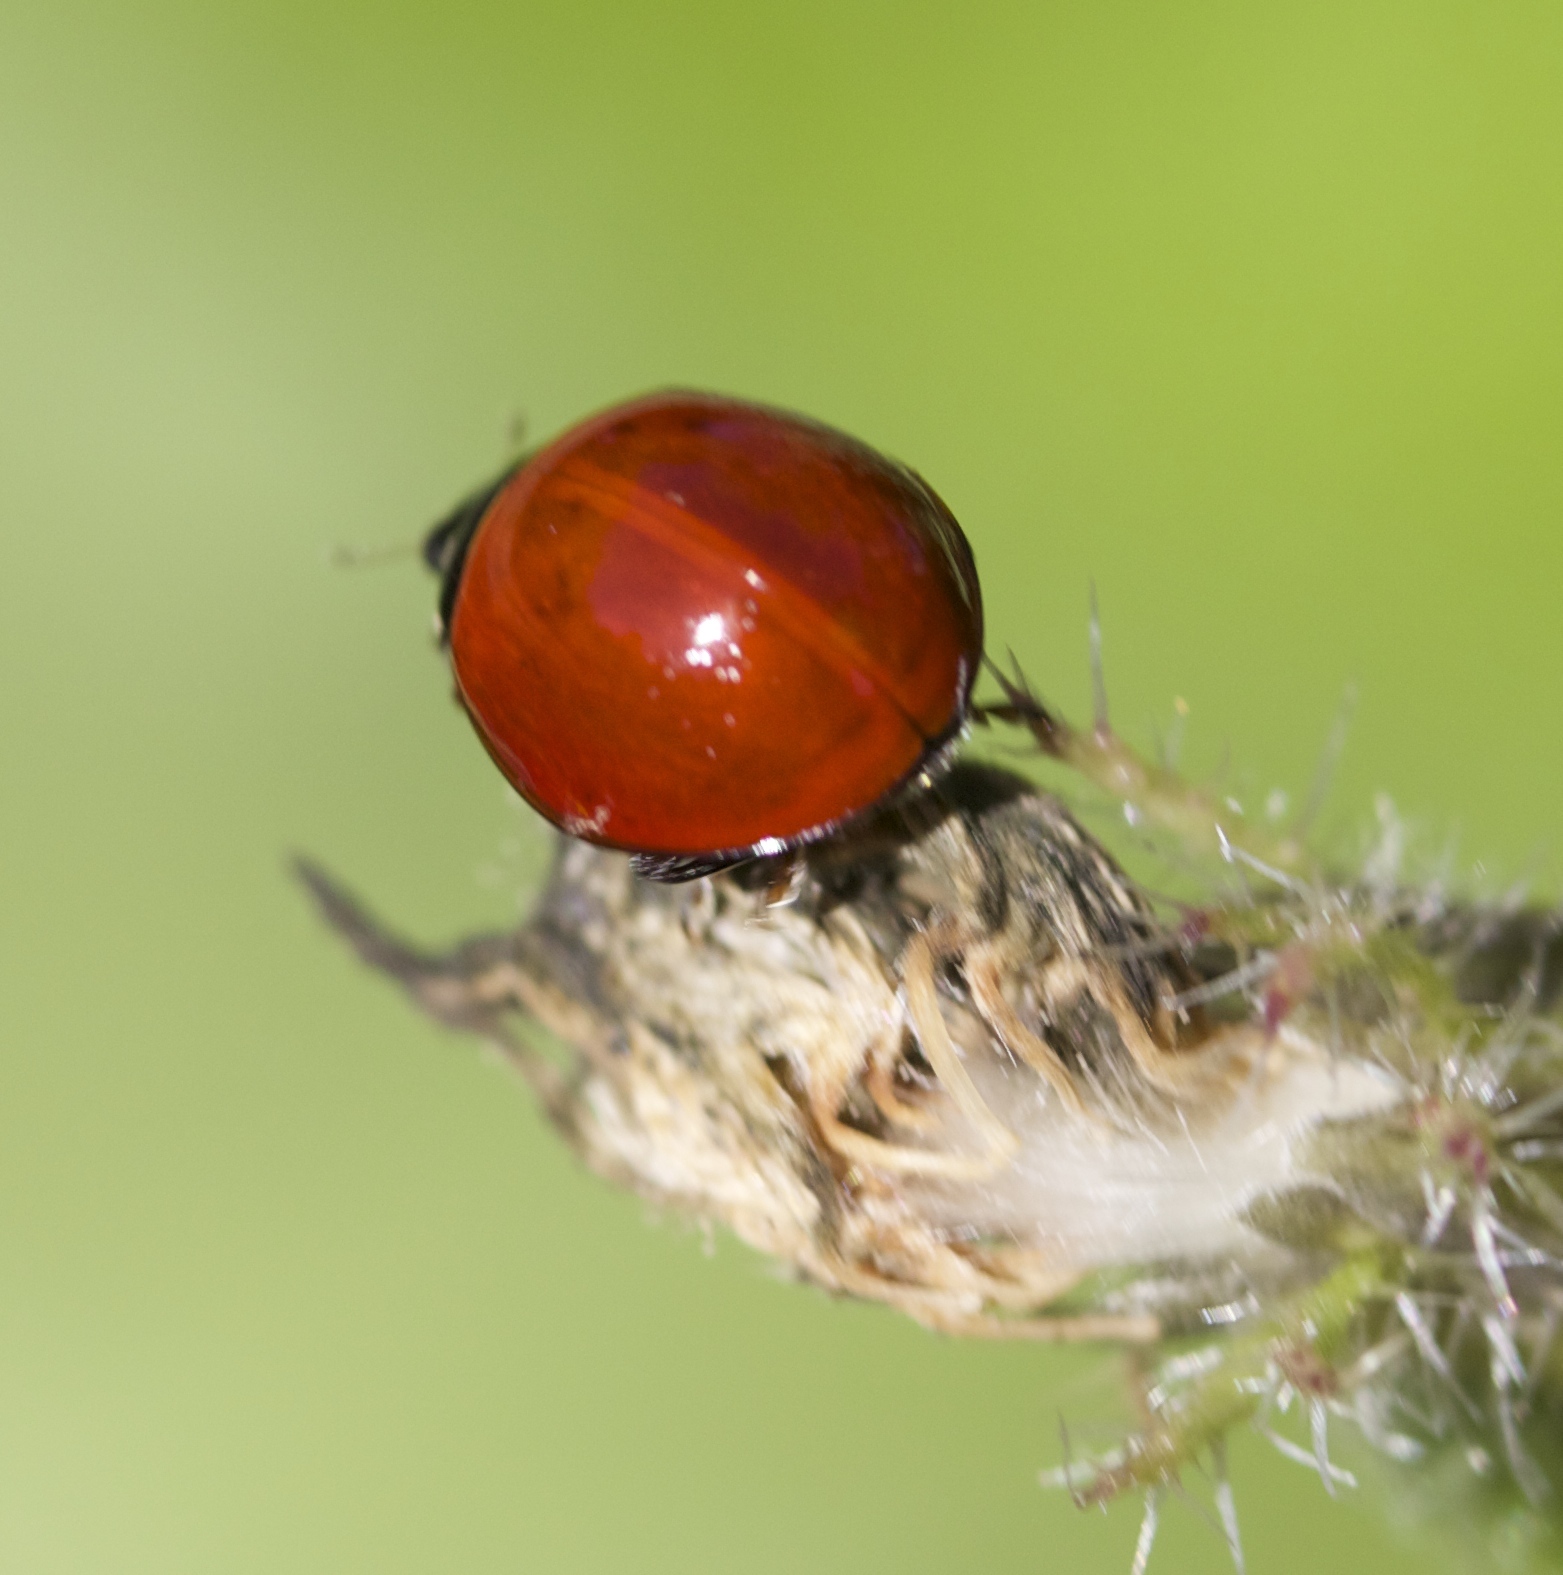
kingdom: Animalia
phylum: Arthropoda
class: Insecta
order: Coleoptera
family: Coccinellidae
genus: Cycloneda
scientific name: Cycloneda sanguinea
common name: Ladybird beetle
